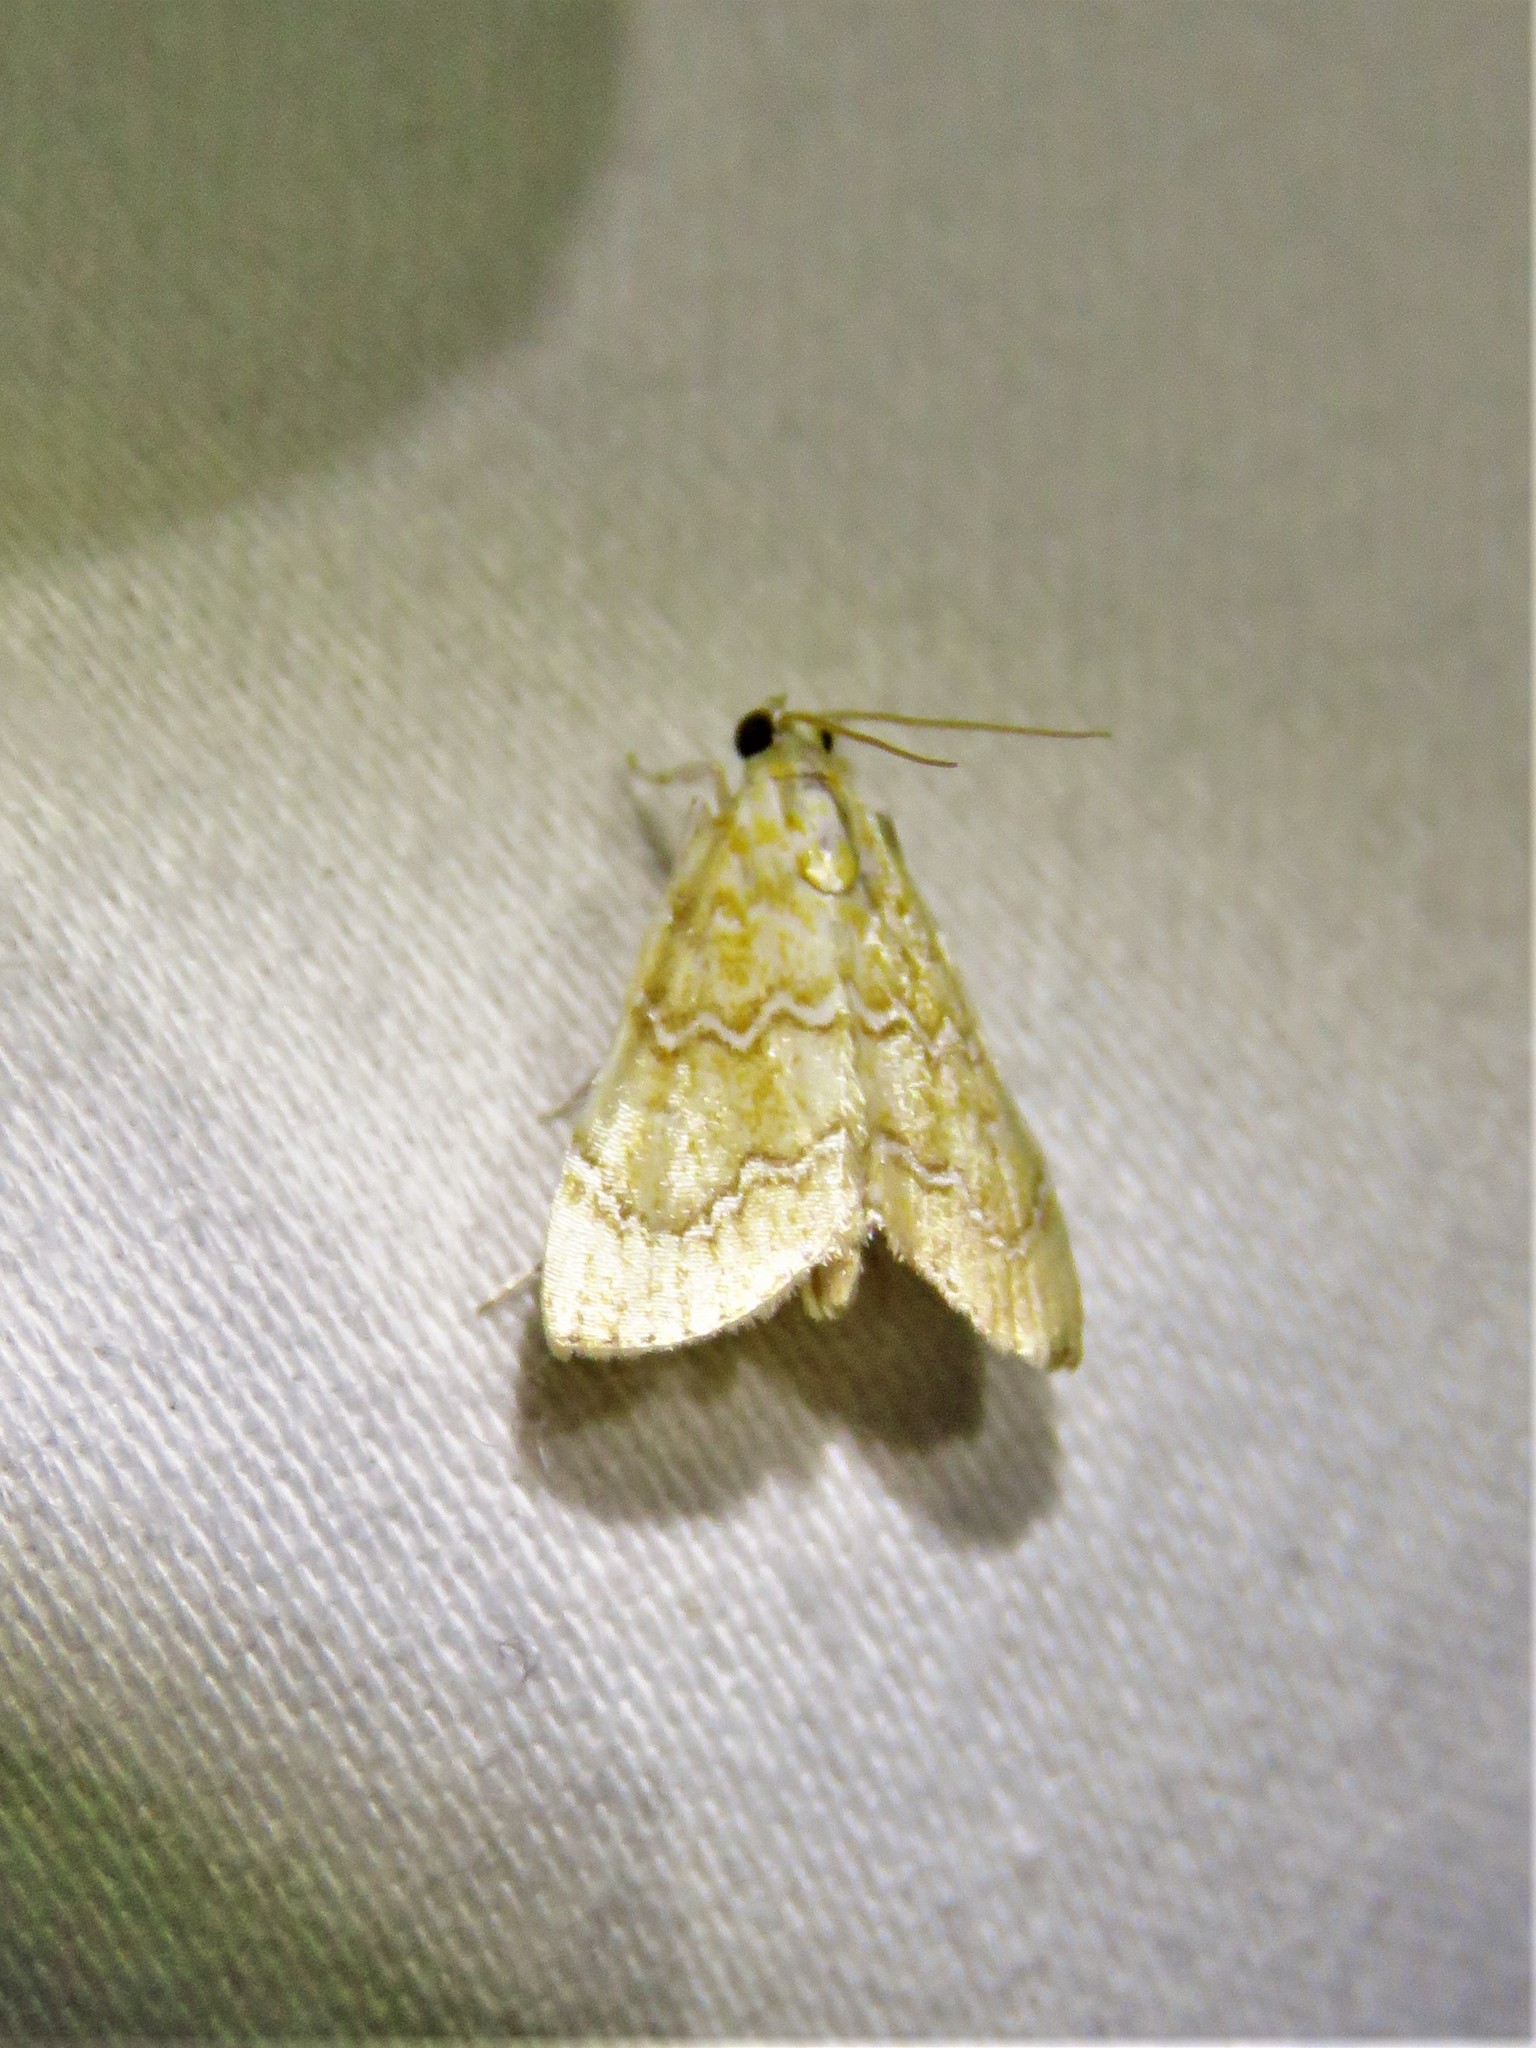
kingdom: Animalia
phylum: Arthropoda
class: Insecta
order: Lepidoptera
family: Crambidae
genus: Glaphyria
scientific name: Glaphyria sesquistrialis
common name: White-roped glaphyria
